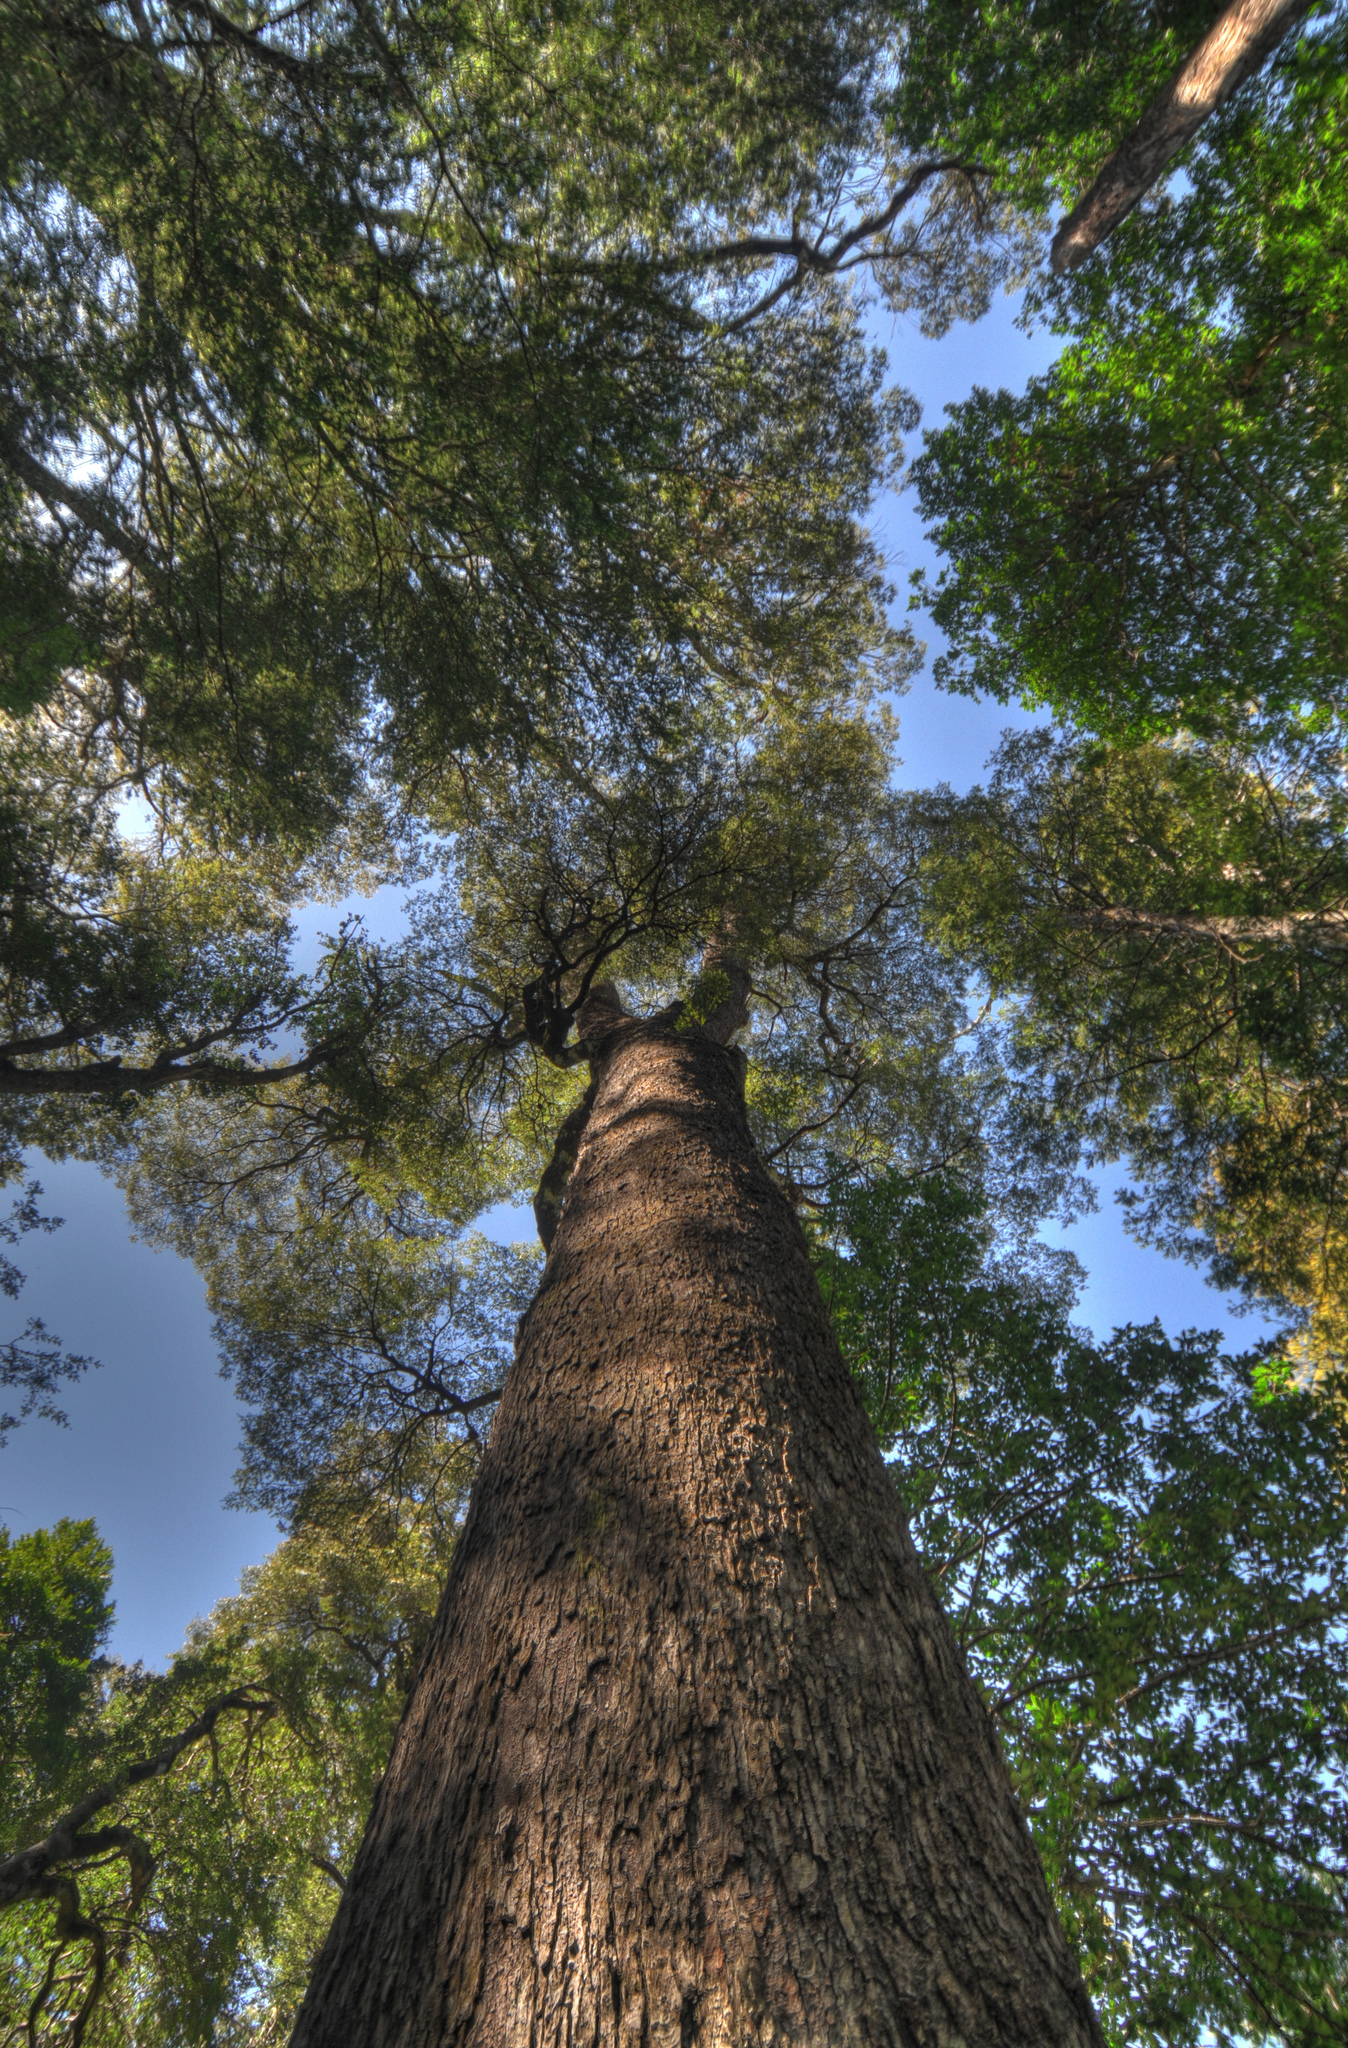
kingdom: Plantae
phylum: Tracheophyta
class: Magnoliopsida
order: Fagales
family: Nothofagaceae
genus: Nothofagus
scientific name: Nothofagus dombeyi
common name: Coigue
